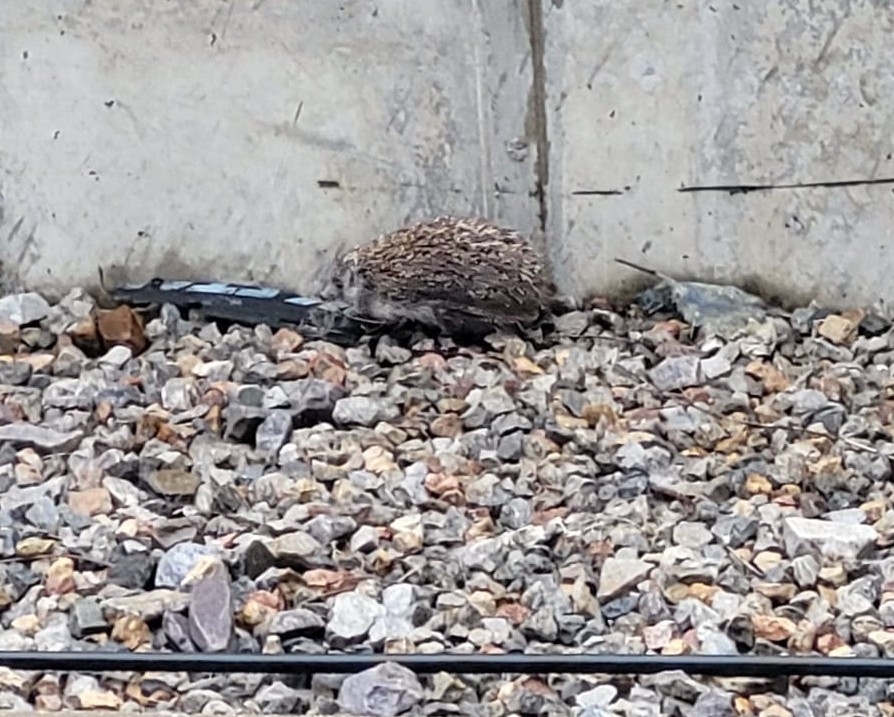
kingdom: Animalia
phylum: Chordata
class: Mammalia
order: Erinaceomorpha
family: Erinaceidae
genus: Erinaceus
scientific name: Erinaceus roumanicus
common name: Northern white-breasted hedgehog
